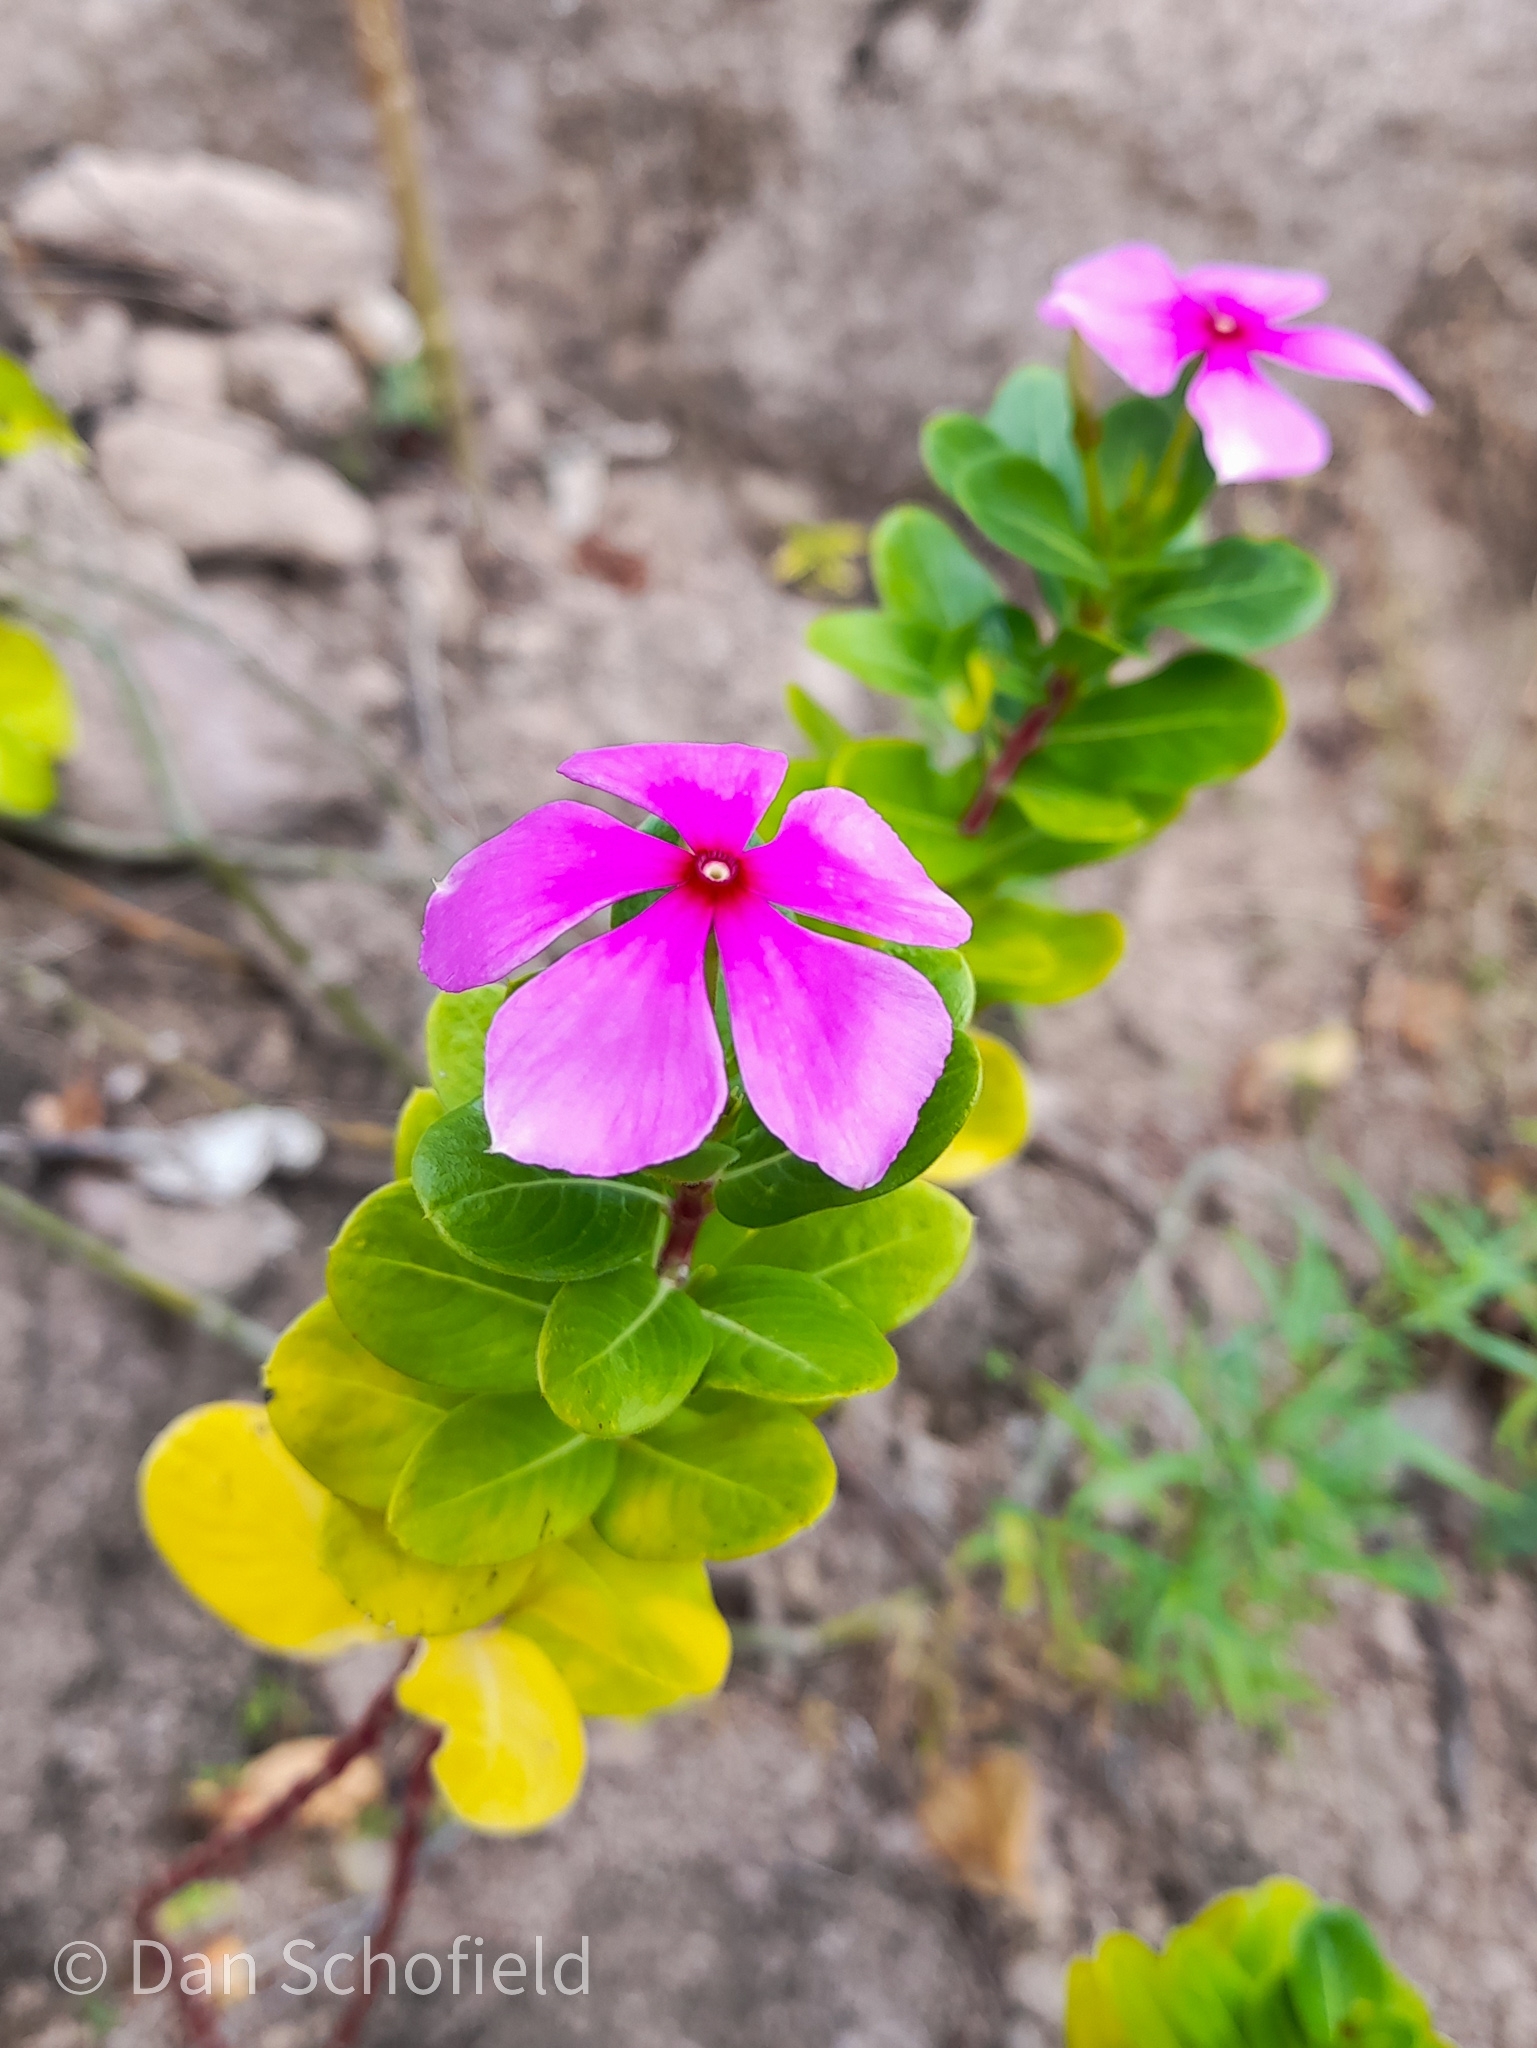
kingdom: Plantae
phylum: Tracheophyta
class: Magnoliopsida
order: Gentianales
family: Apocynaceae
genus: Catharanthus
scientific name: Catharanthus roseus
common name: Madagascar periwinkle
